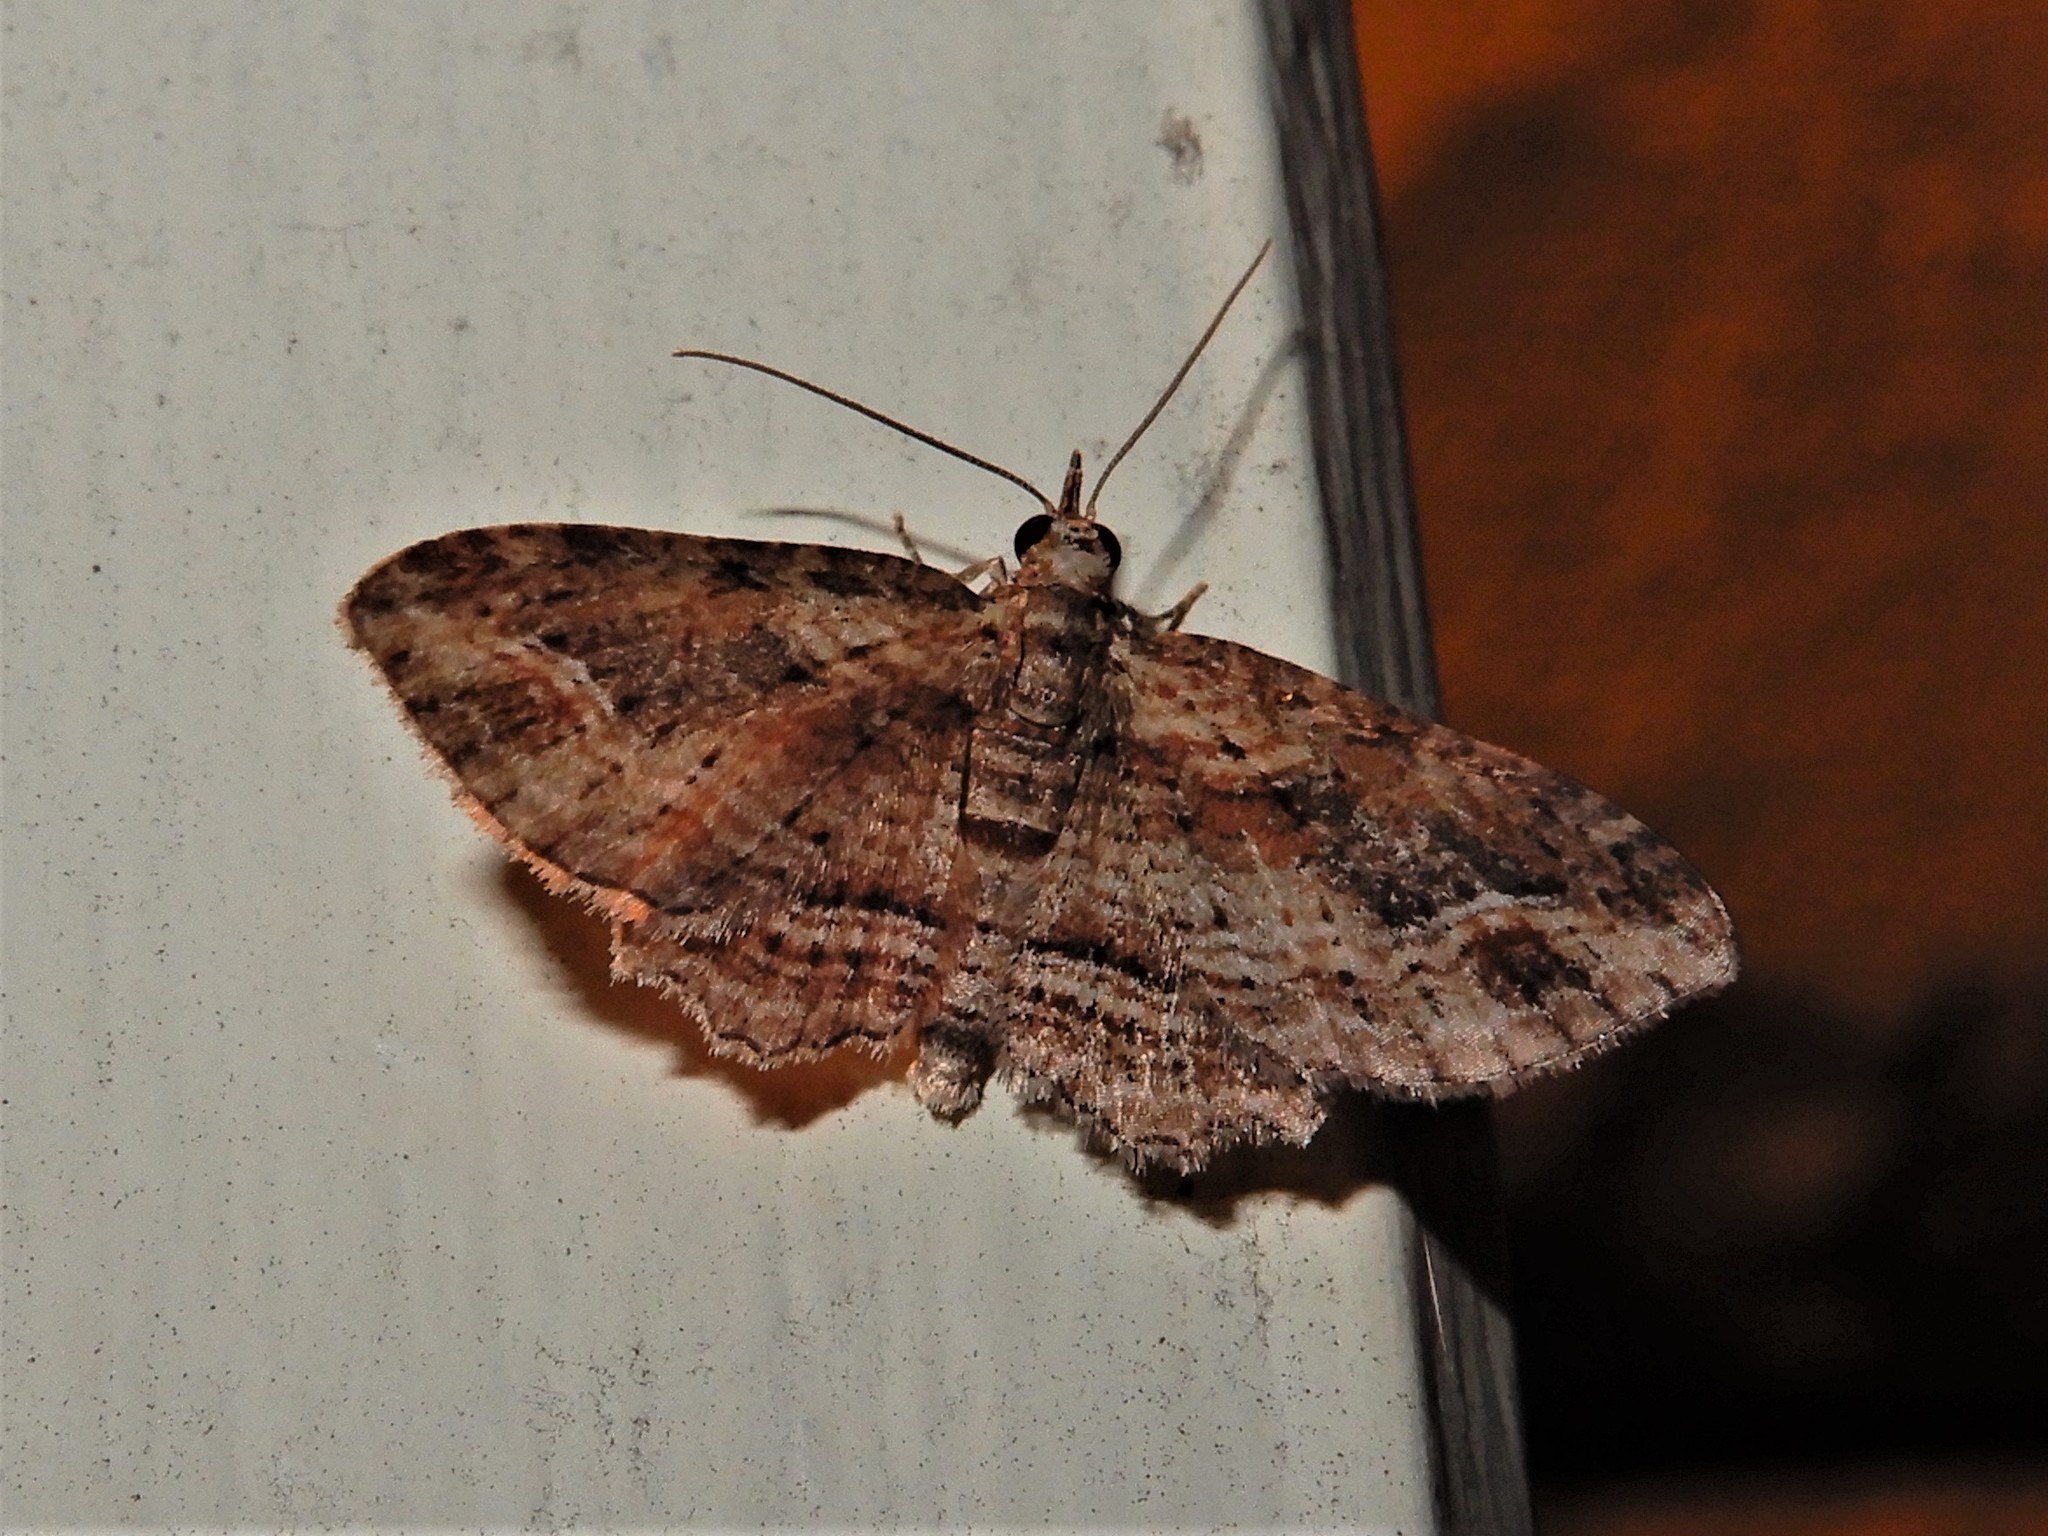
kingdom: Animalia
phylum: Arthropoda
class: Insecta
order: Lepidoptera
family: Geometridae
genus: Chloroclystis
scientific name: Chloroclystis filata
